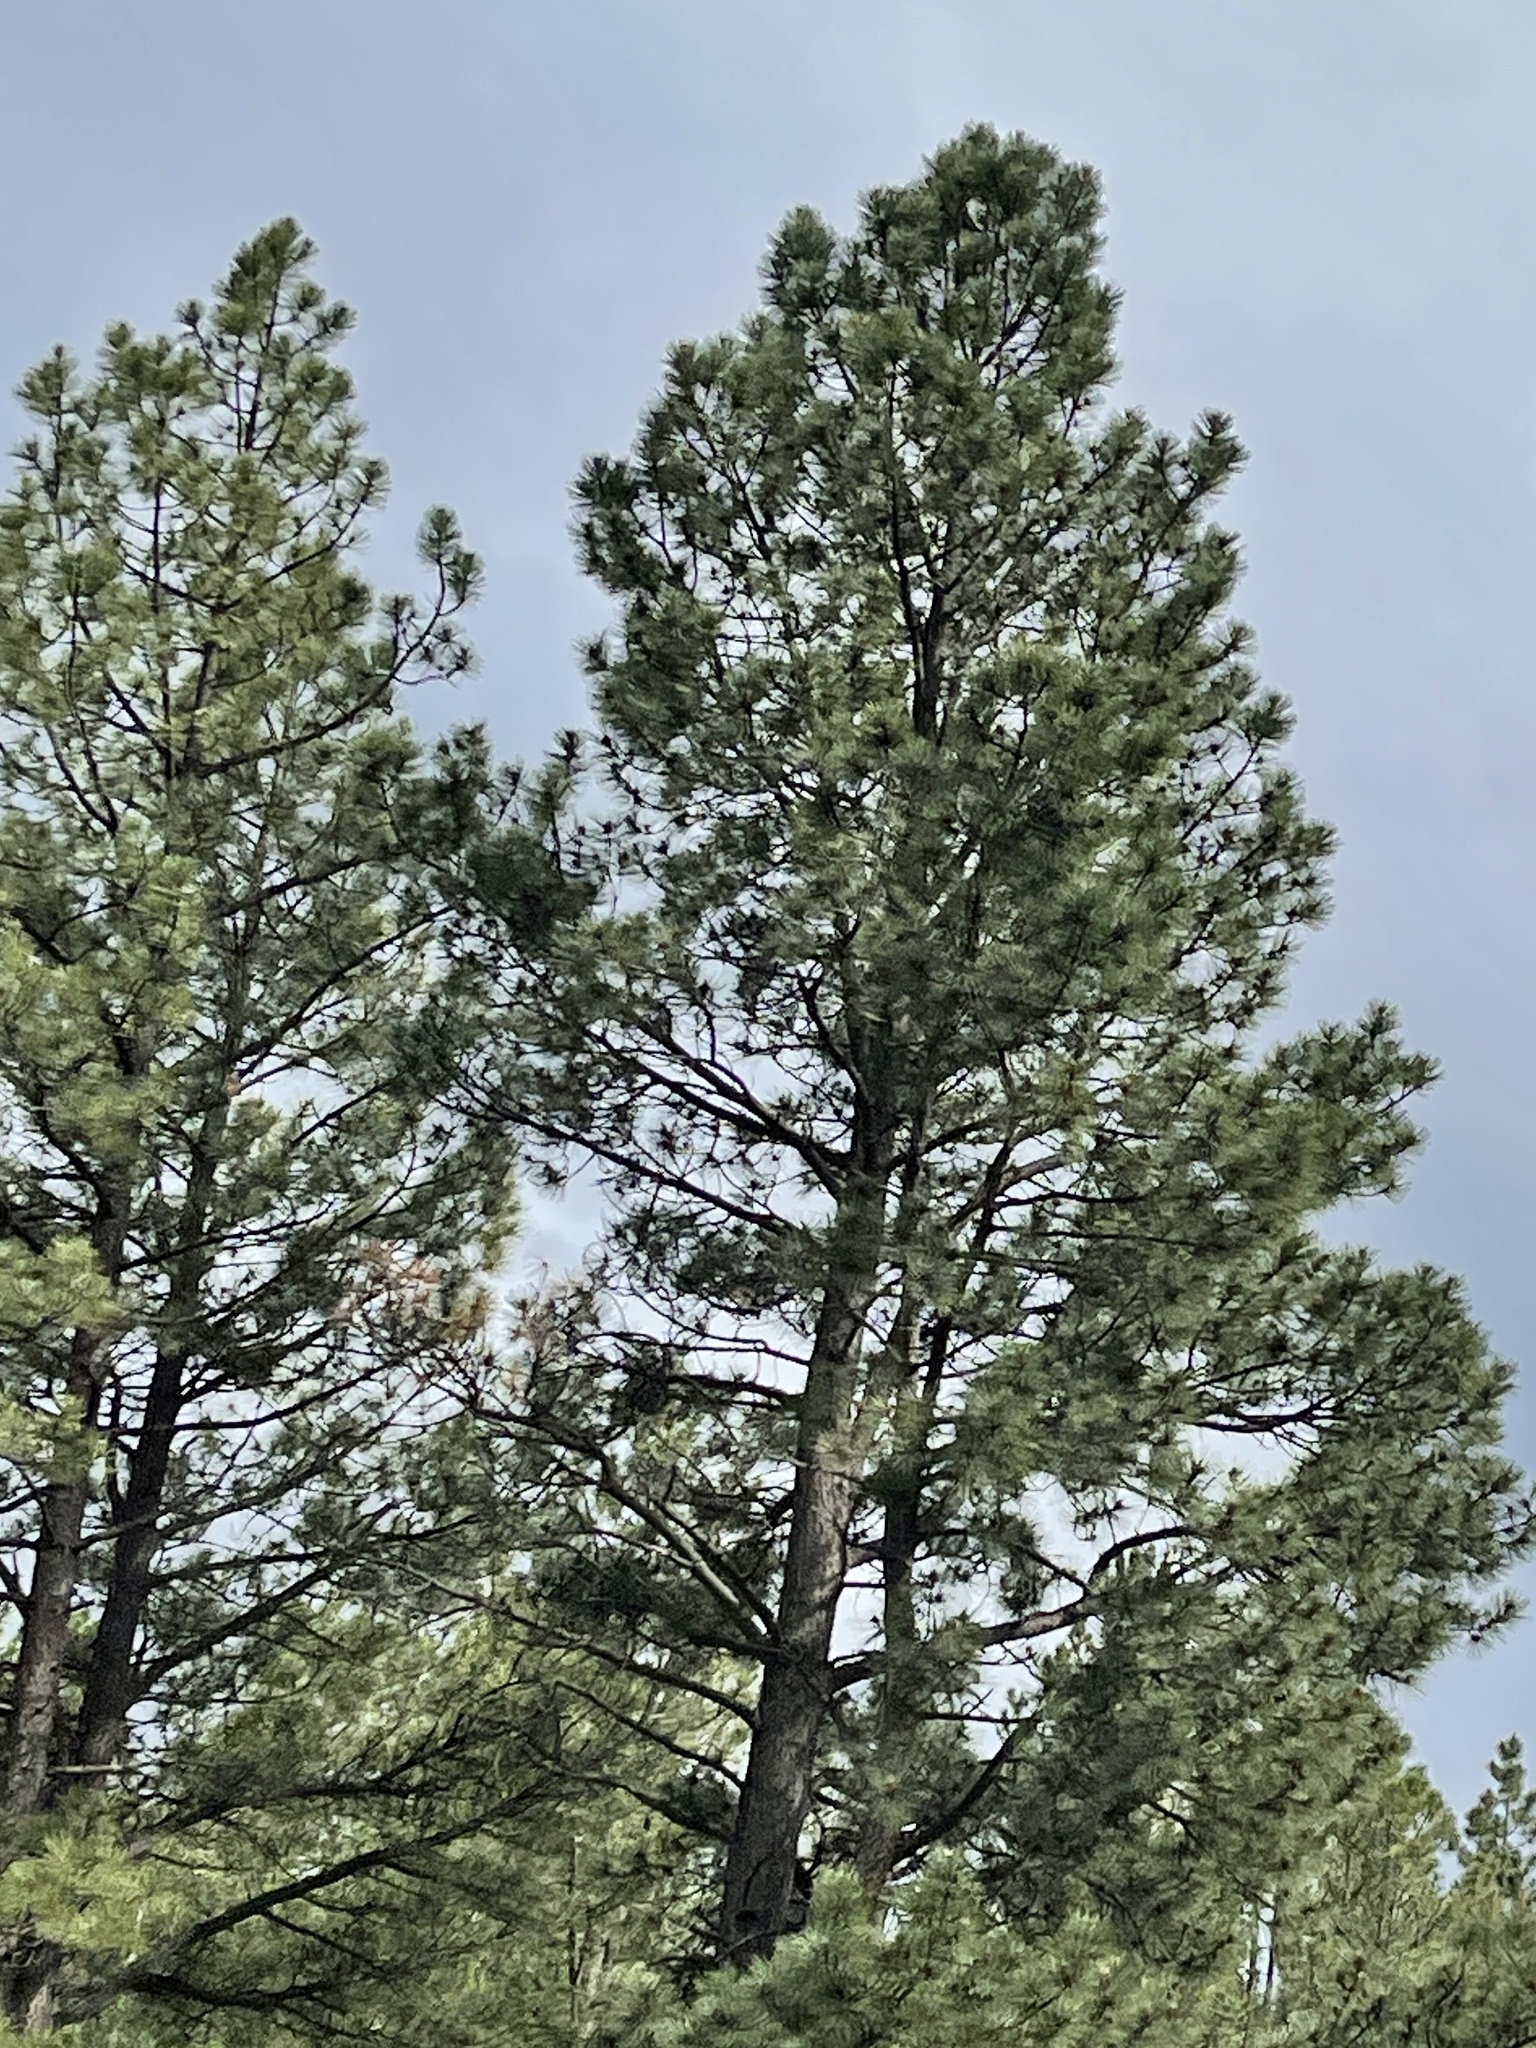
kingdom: Plantae
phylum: Tracheophyta
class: Pinopsida
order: Pinales
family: Pinaceae
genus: Pinus
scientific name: Pinus ponderosa
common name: Western yellow-pine
